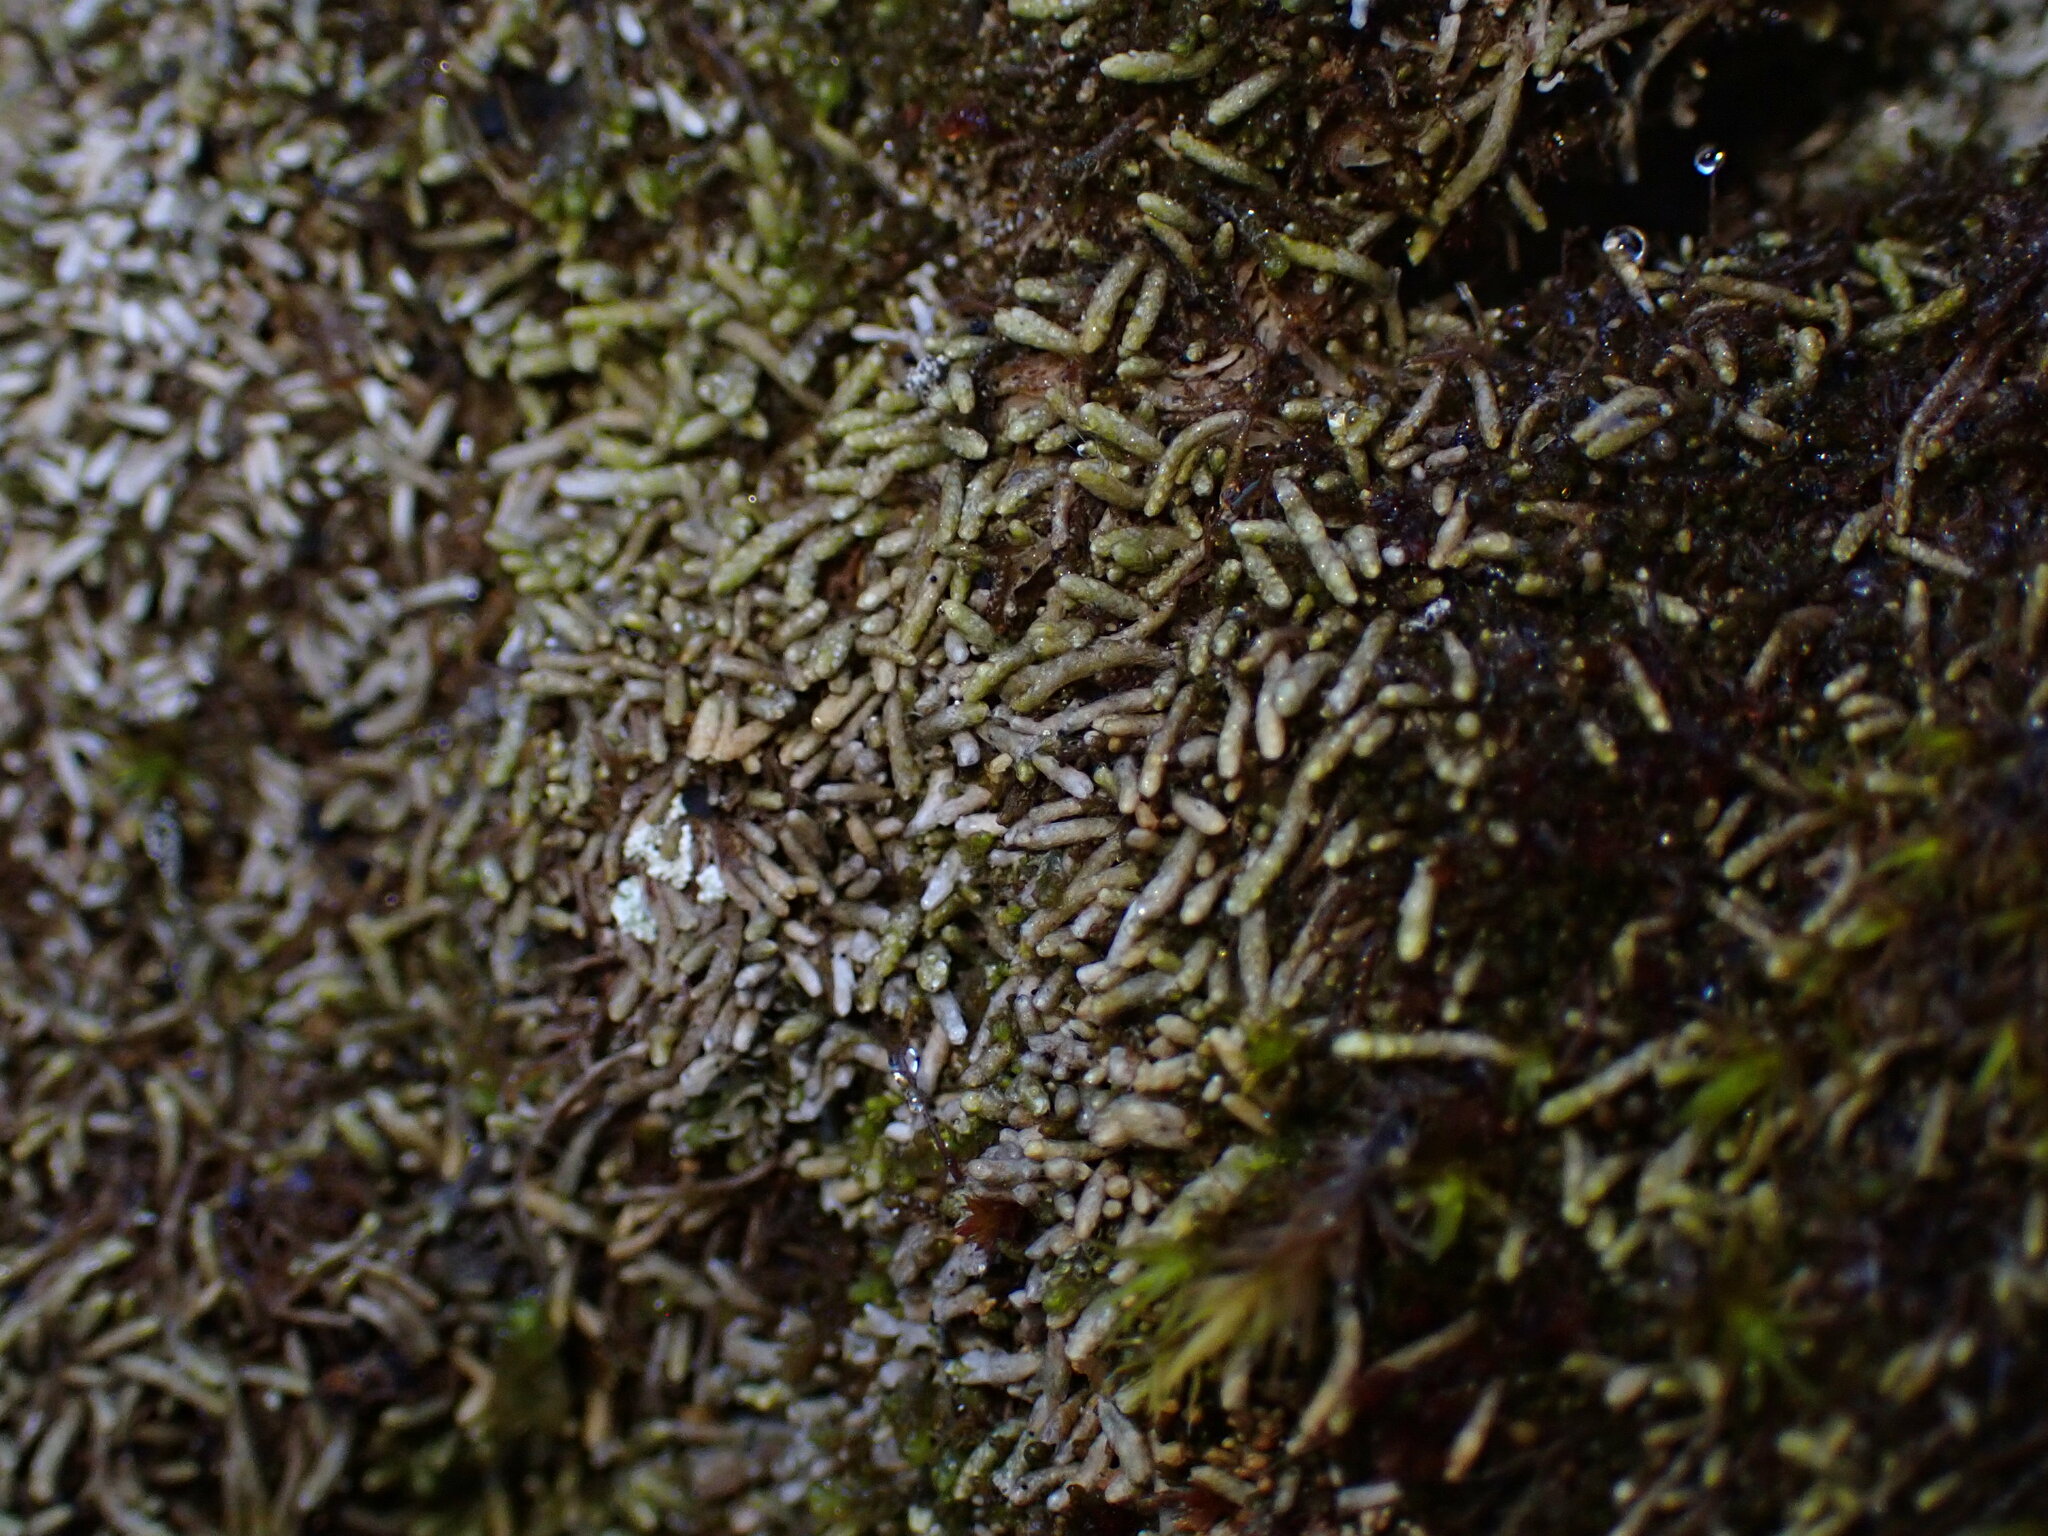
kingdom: Plantae
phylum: Marchantiophyta
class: Jungermanniopsida
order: Jungermanniales
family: Gymnomitriaceae
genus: Gymnomitrion
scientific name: Gymnomitrion obtusum
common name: White frostwort
